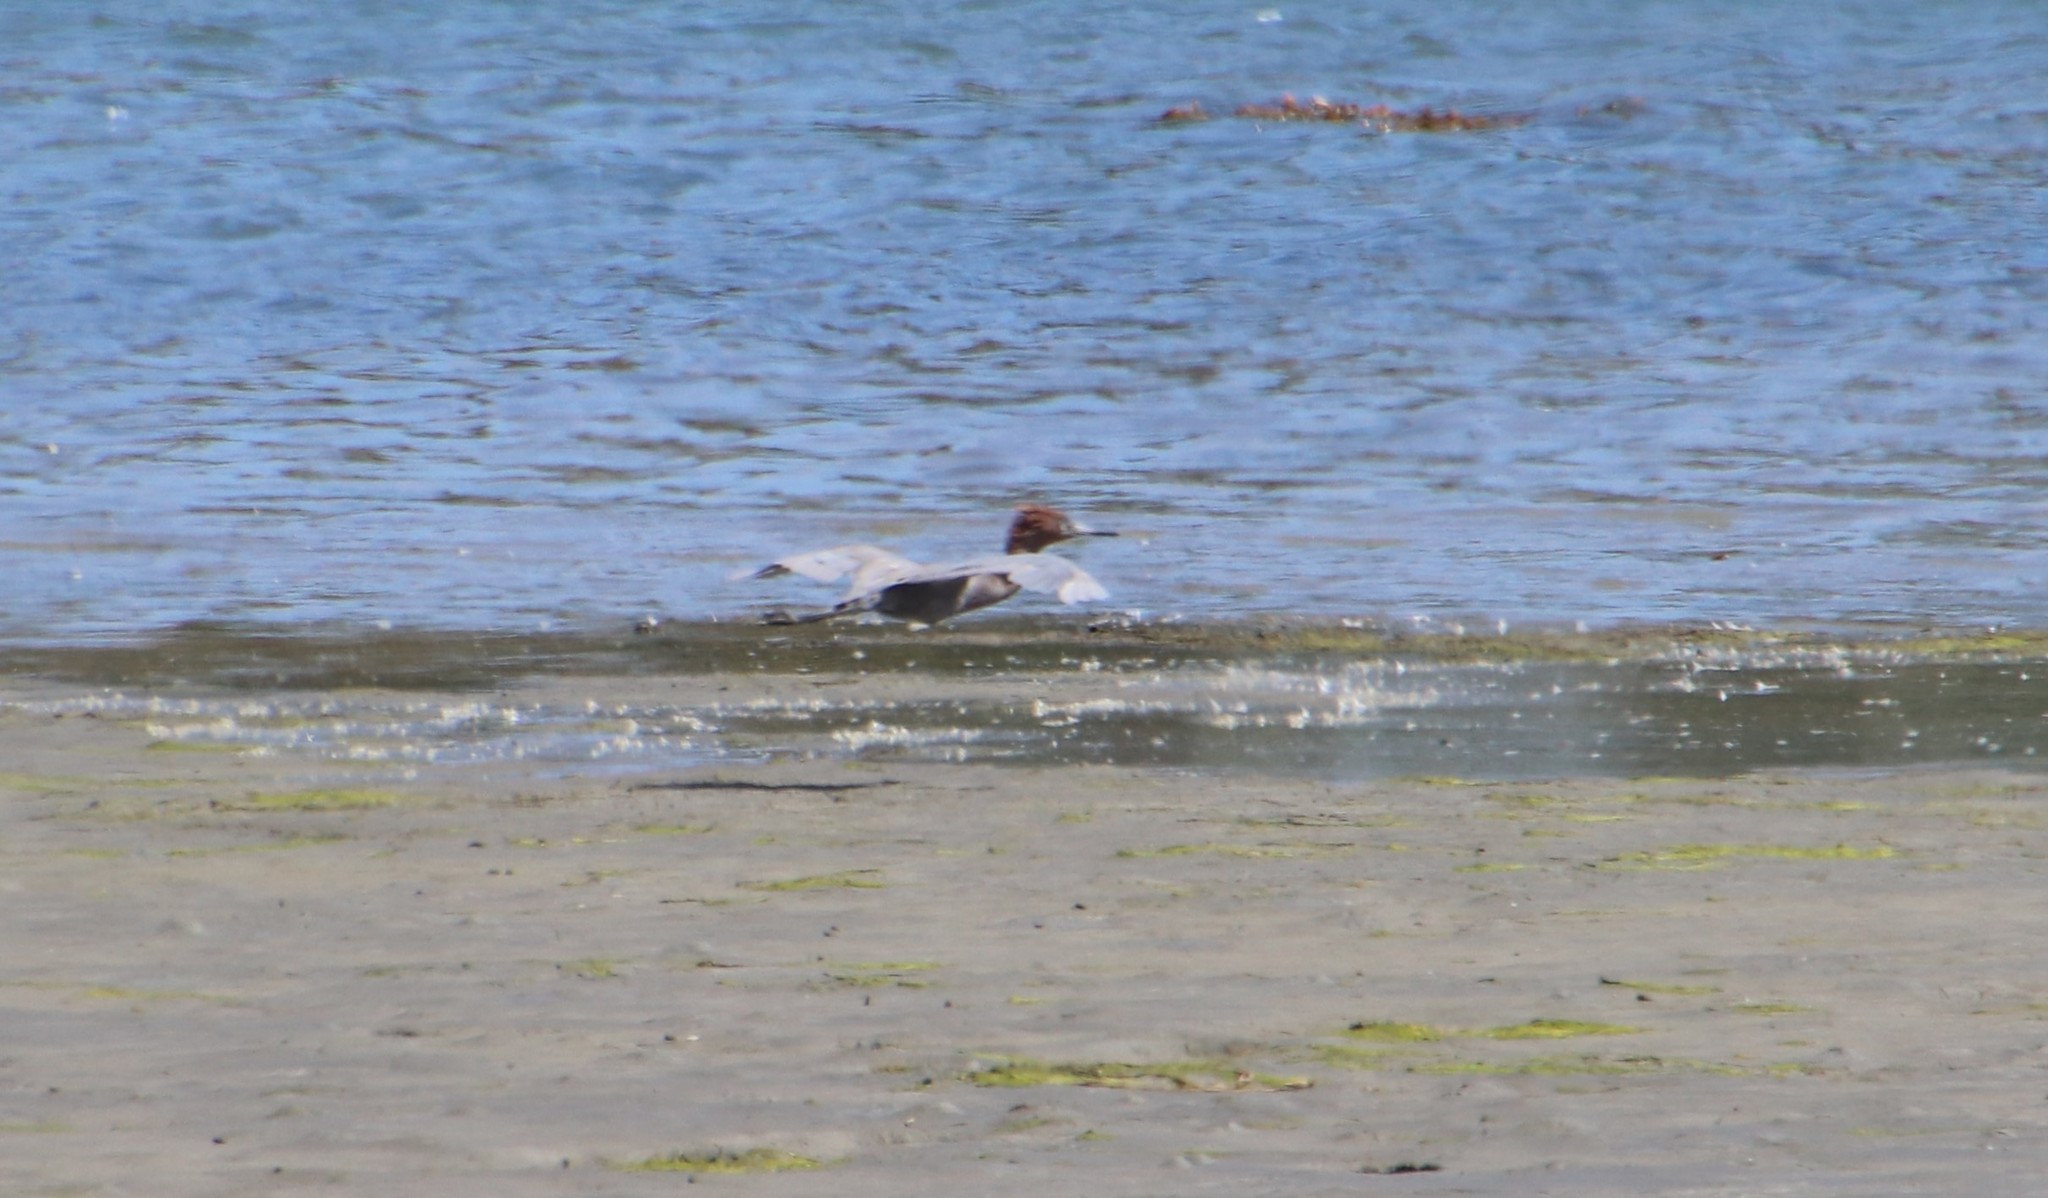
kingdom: Animalia
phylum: Chordata
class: Aves
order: Pelecaniformes
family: Ardeidae
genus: Egretta
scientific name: Egretta rufescens
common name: Reddish egret
